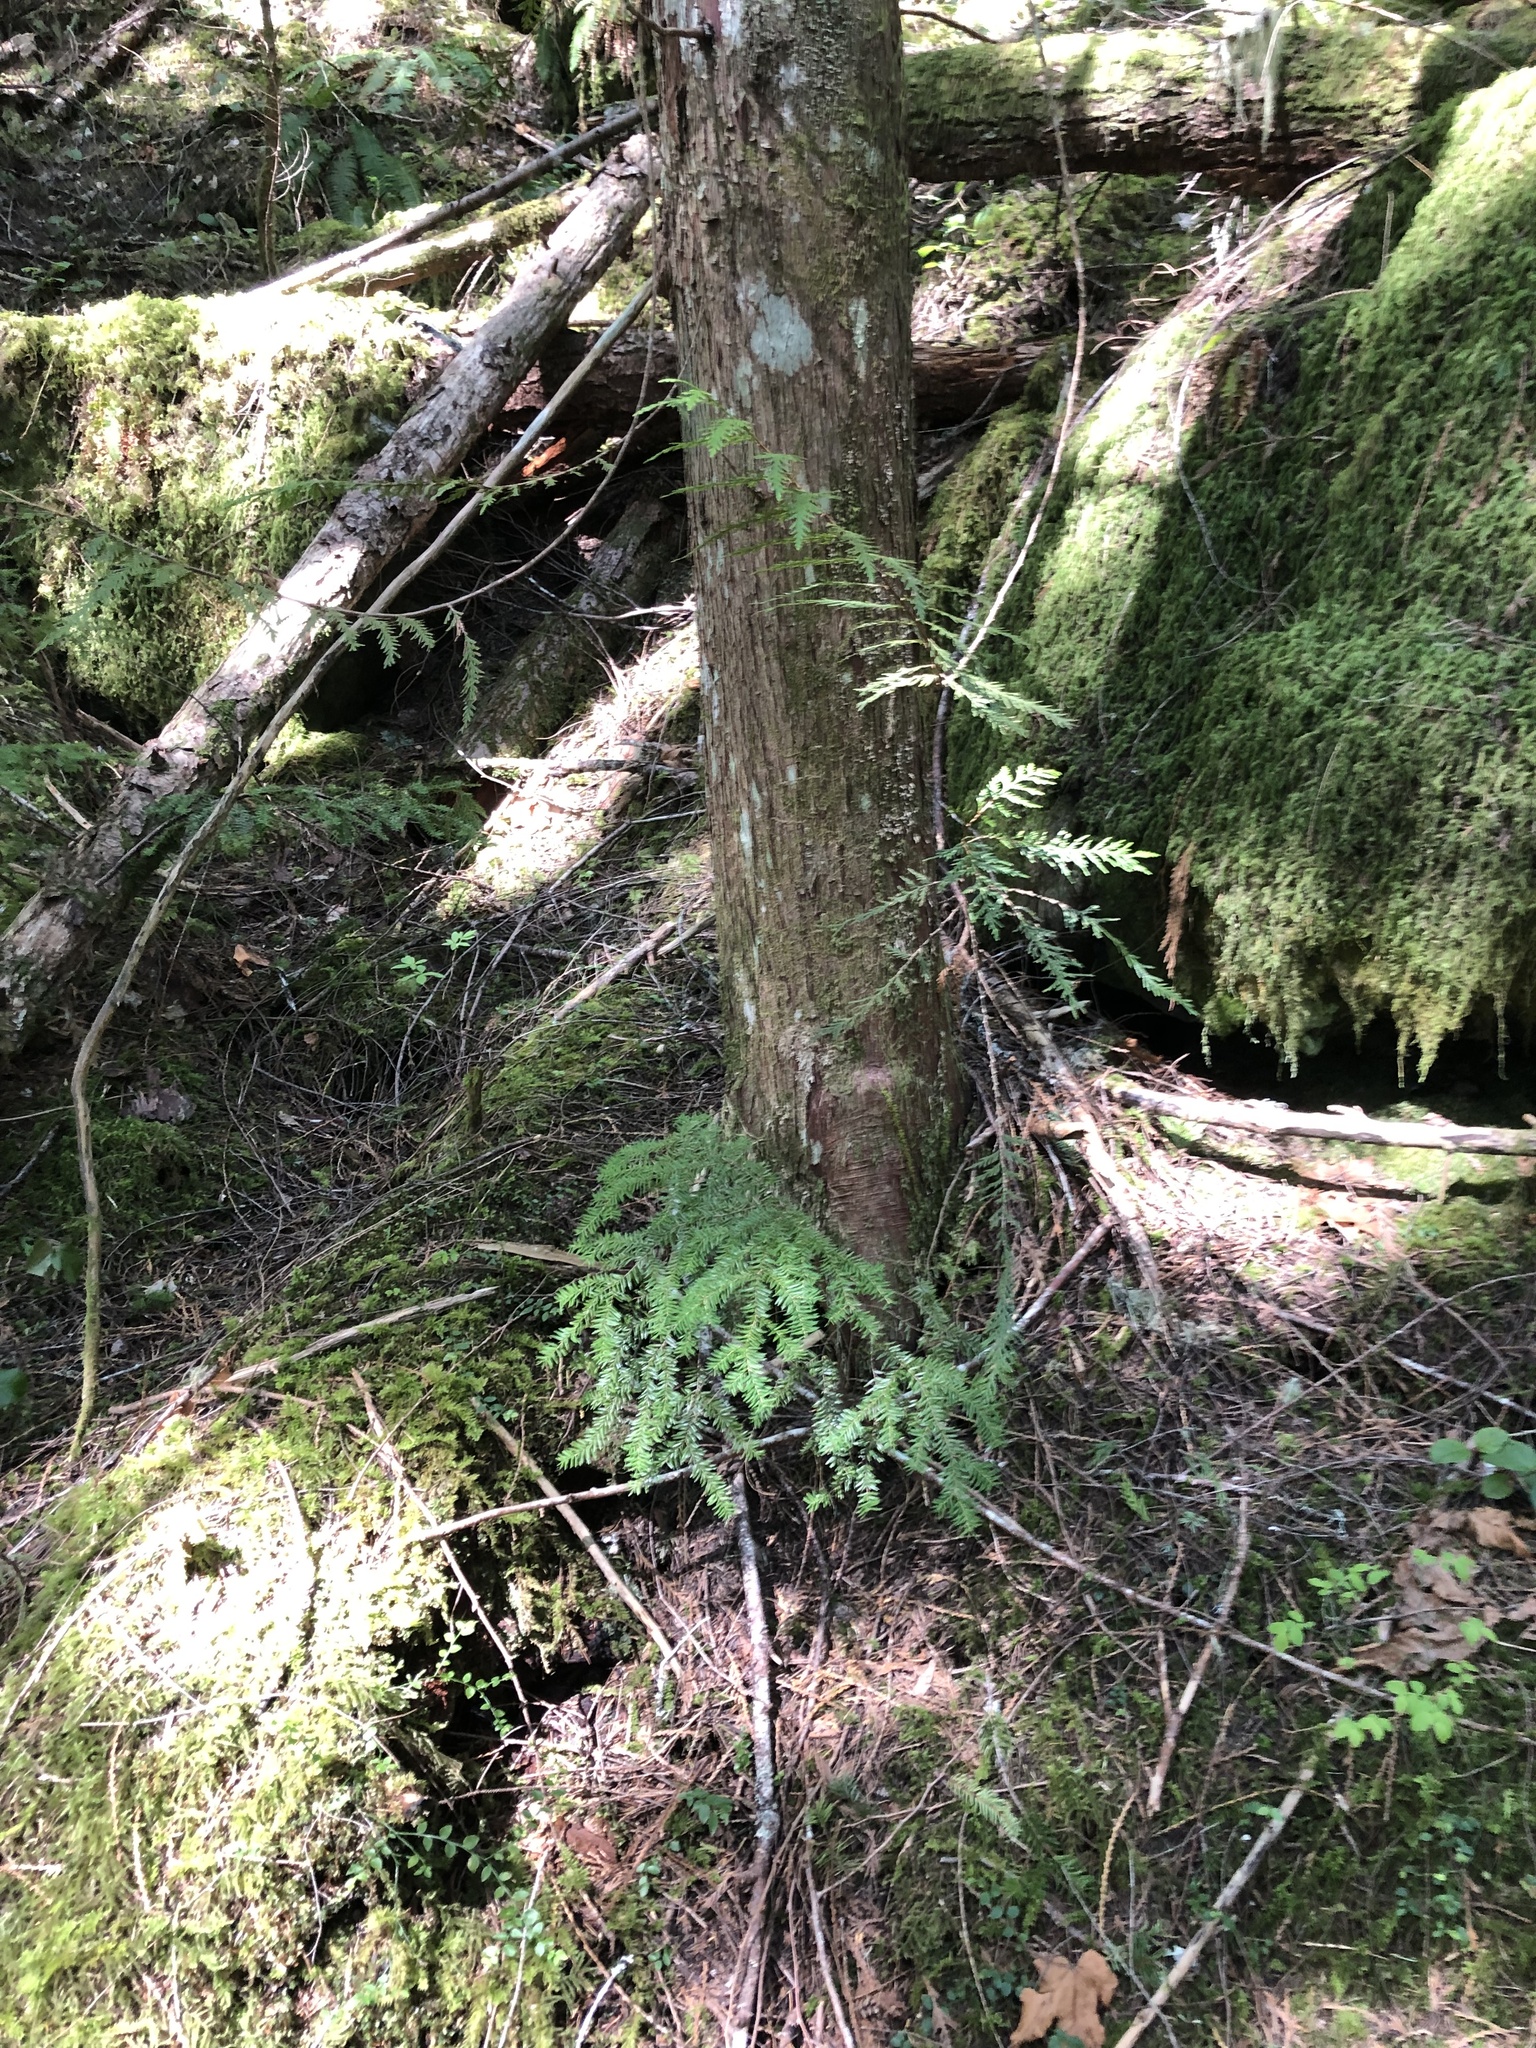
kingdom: Plantae
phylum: Tracheophyta
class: Pinopsida
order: Pinales
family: Cupressaceae
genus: Thuja
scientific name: Thuja plicata
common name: Western red-cedar
